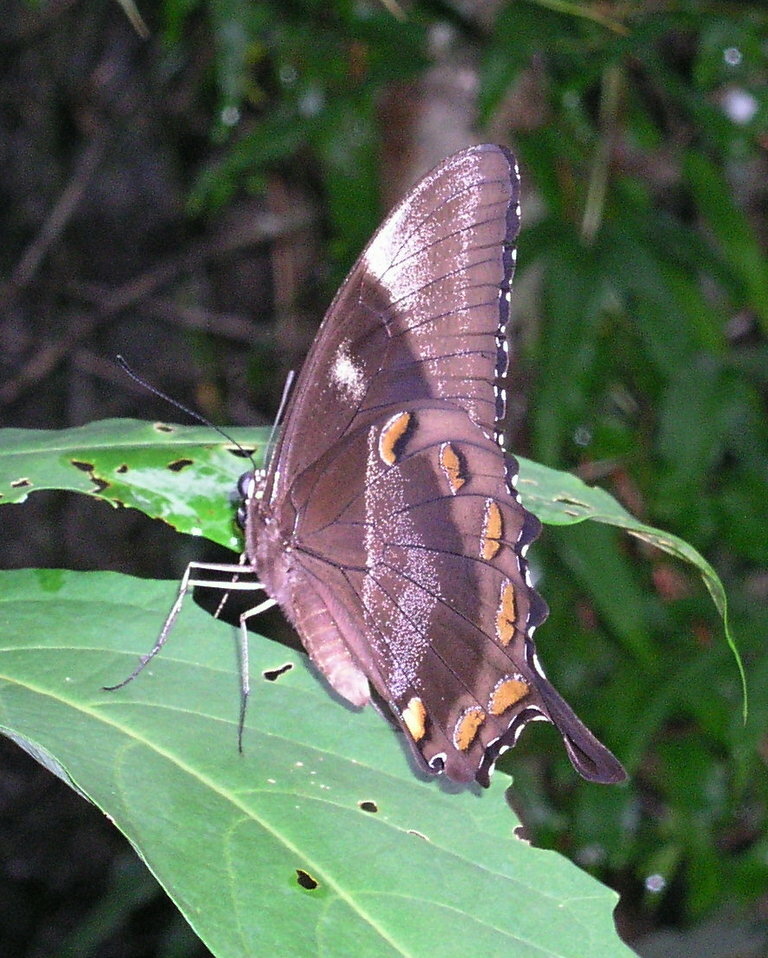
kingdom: Animalia
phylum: Arthropoda
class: Insecta
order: Lepidoptera
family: Papilionidae
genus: Papilio
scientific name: Papilio ulysses
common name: Blue emperor
